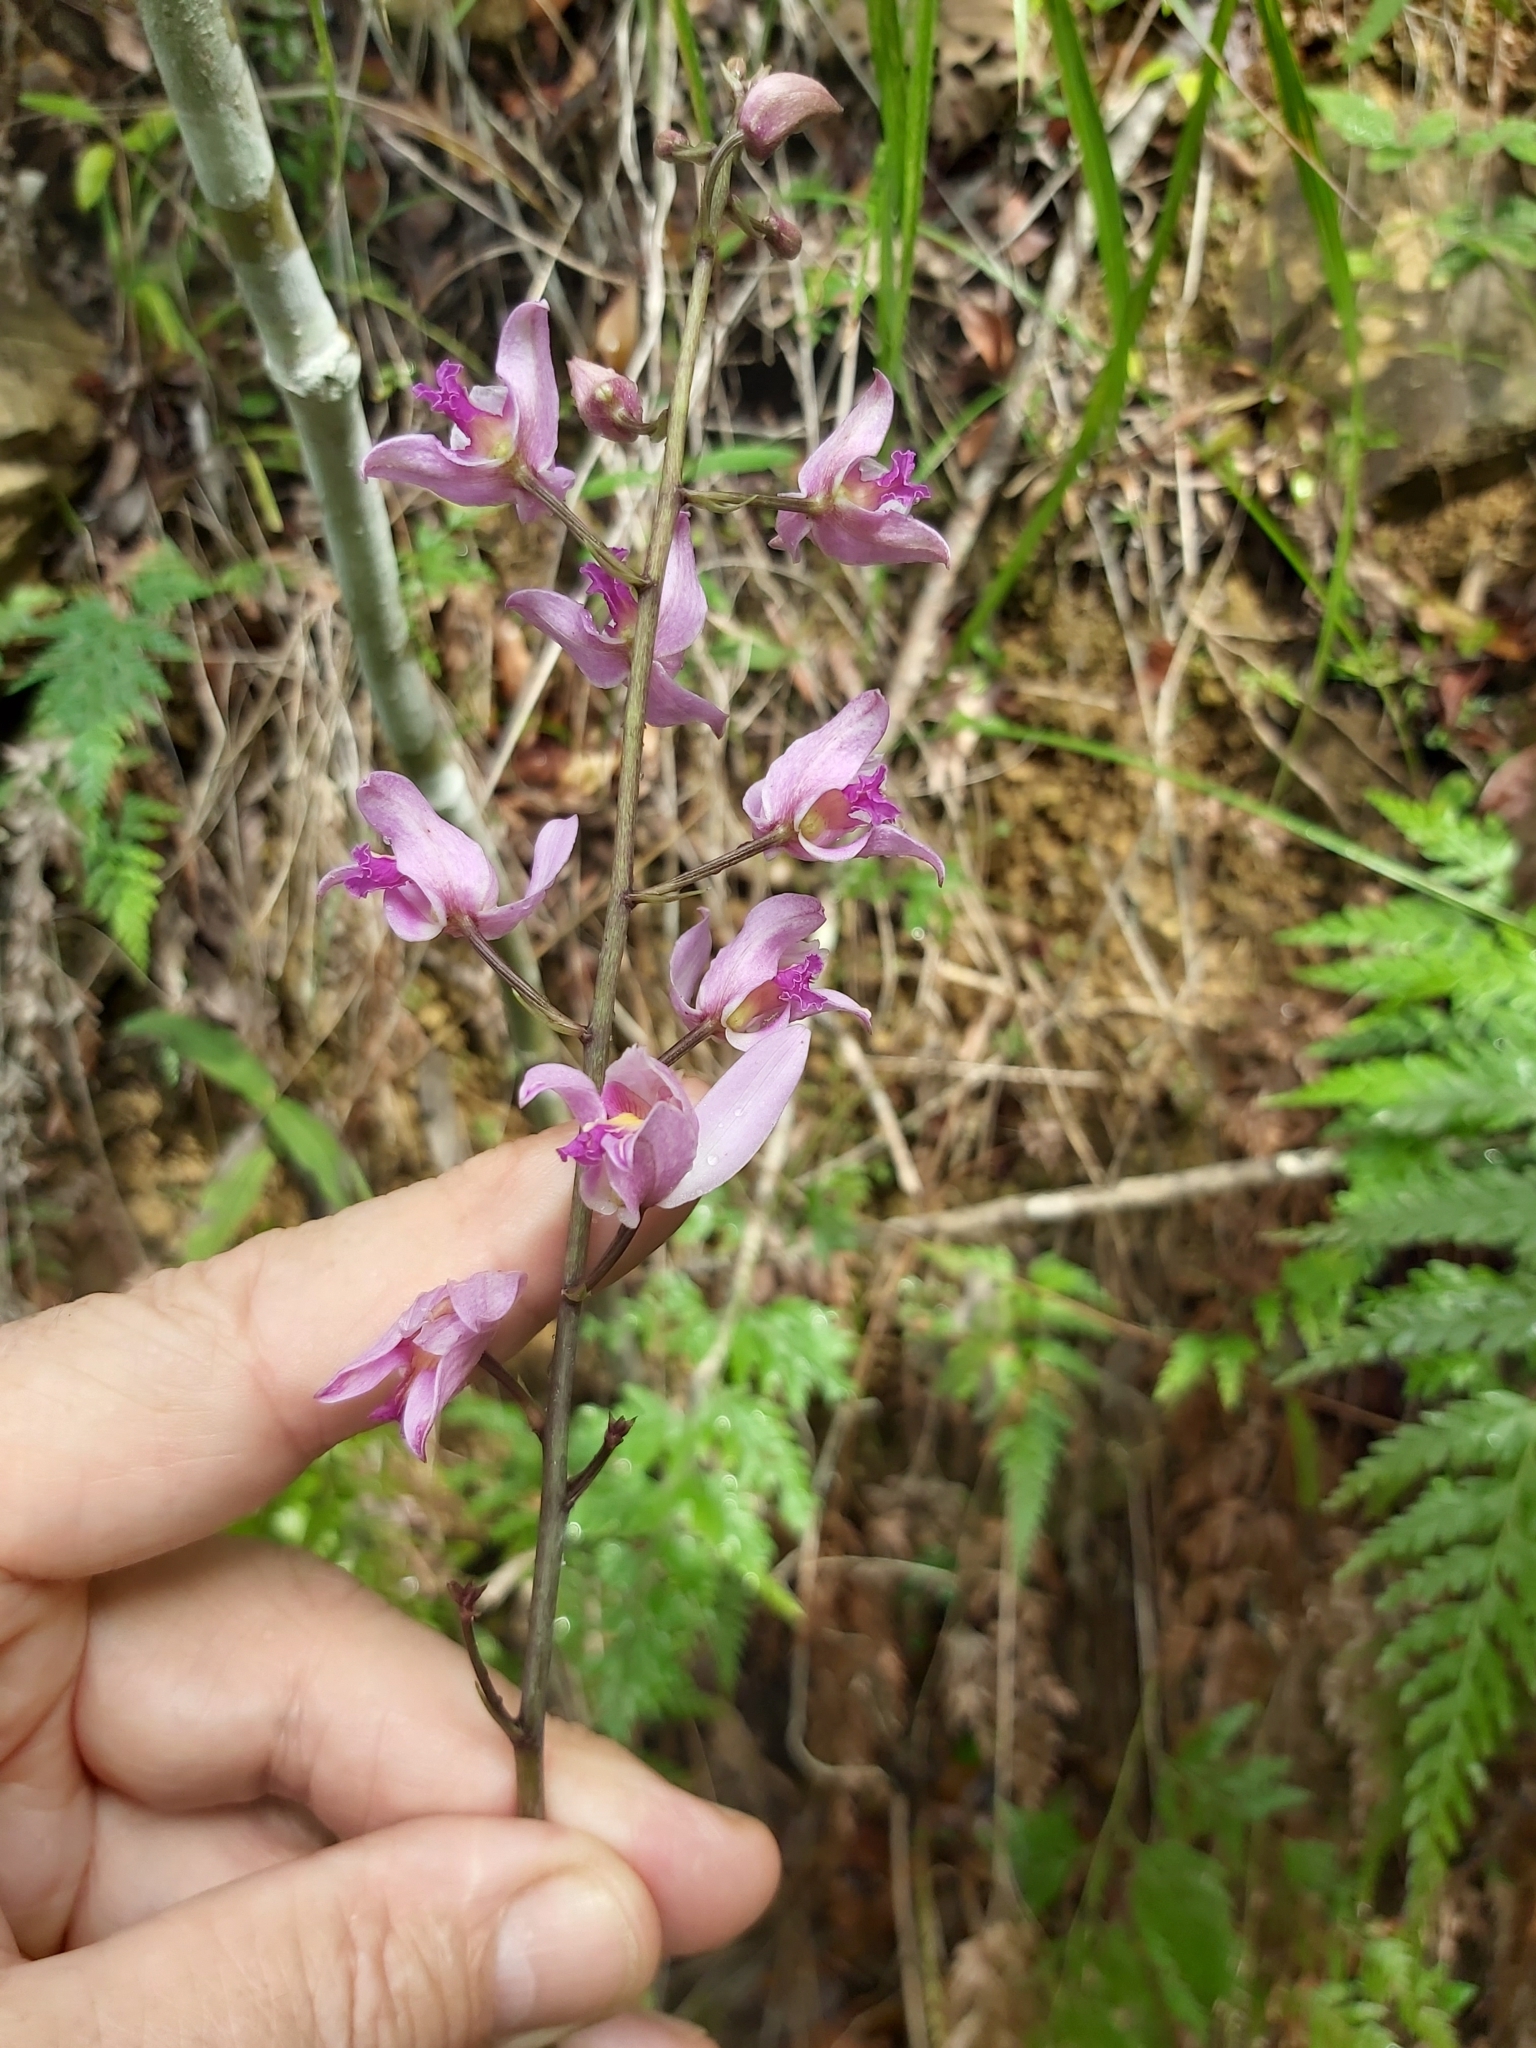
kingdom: Plantae
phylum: Tracheophyta
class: Liliopsida
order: Asparagales
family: Orchidaceae
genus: Bletia
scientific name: Bletia purpurea
